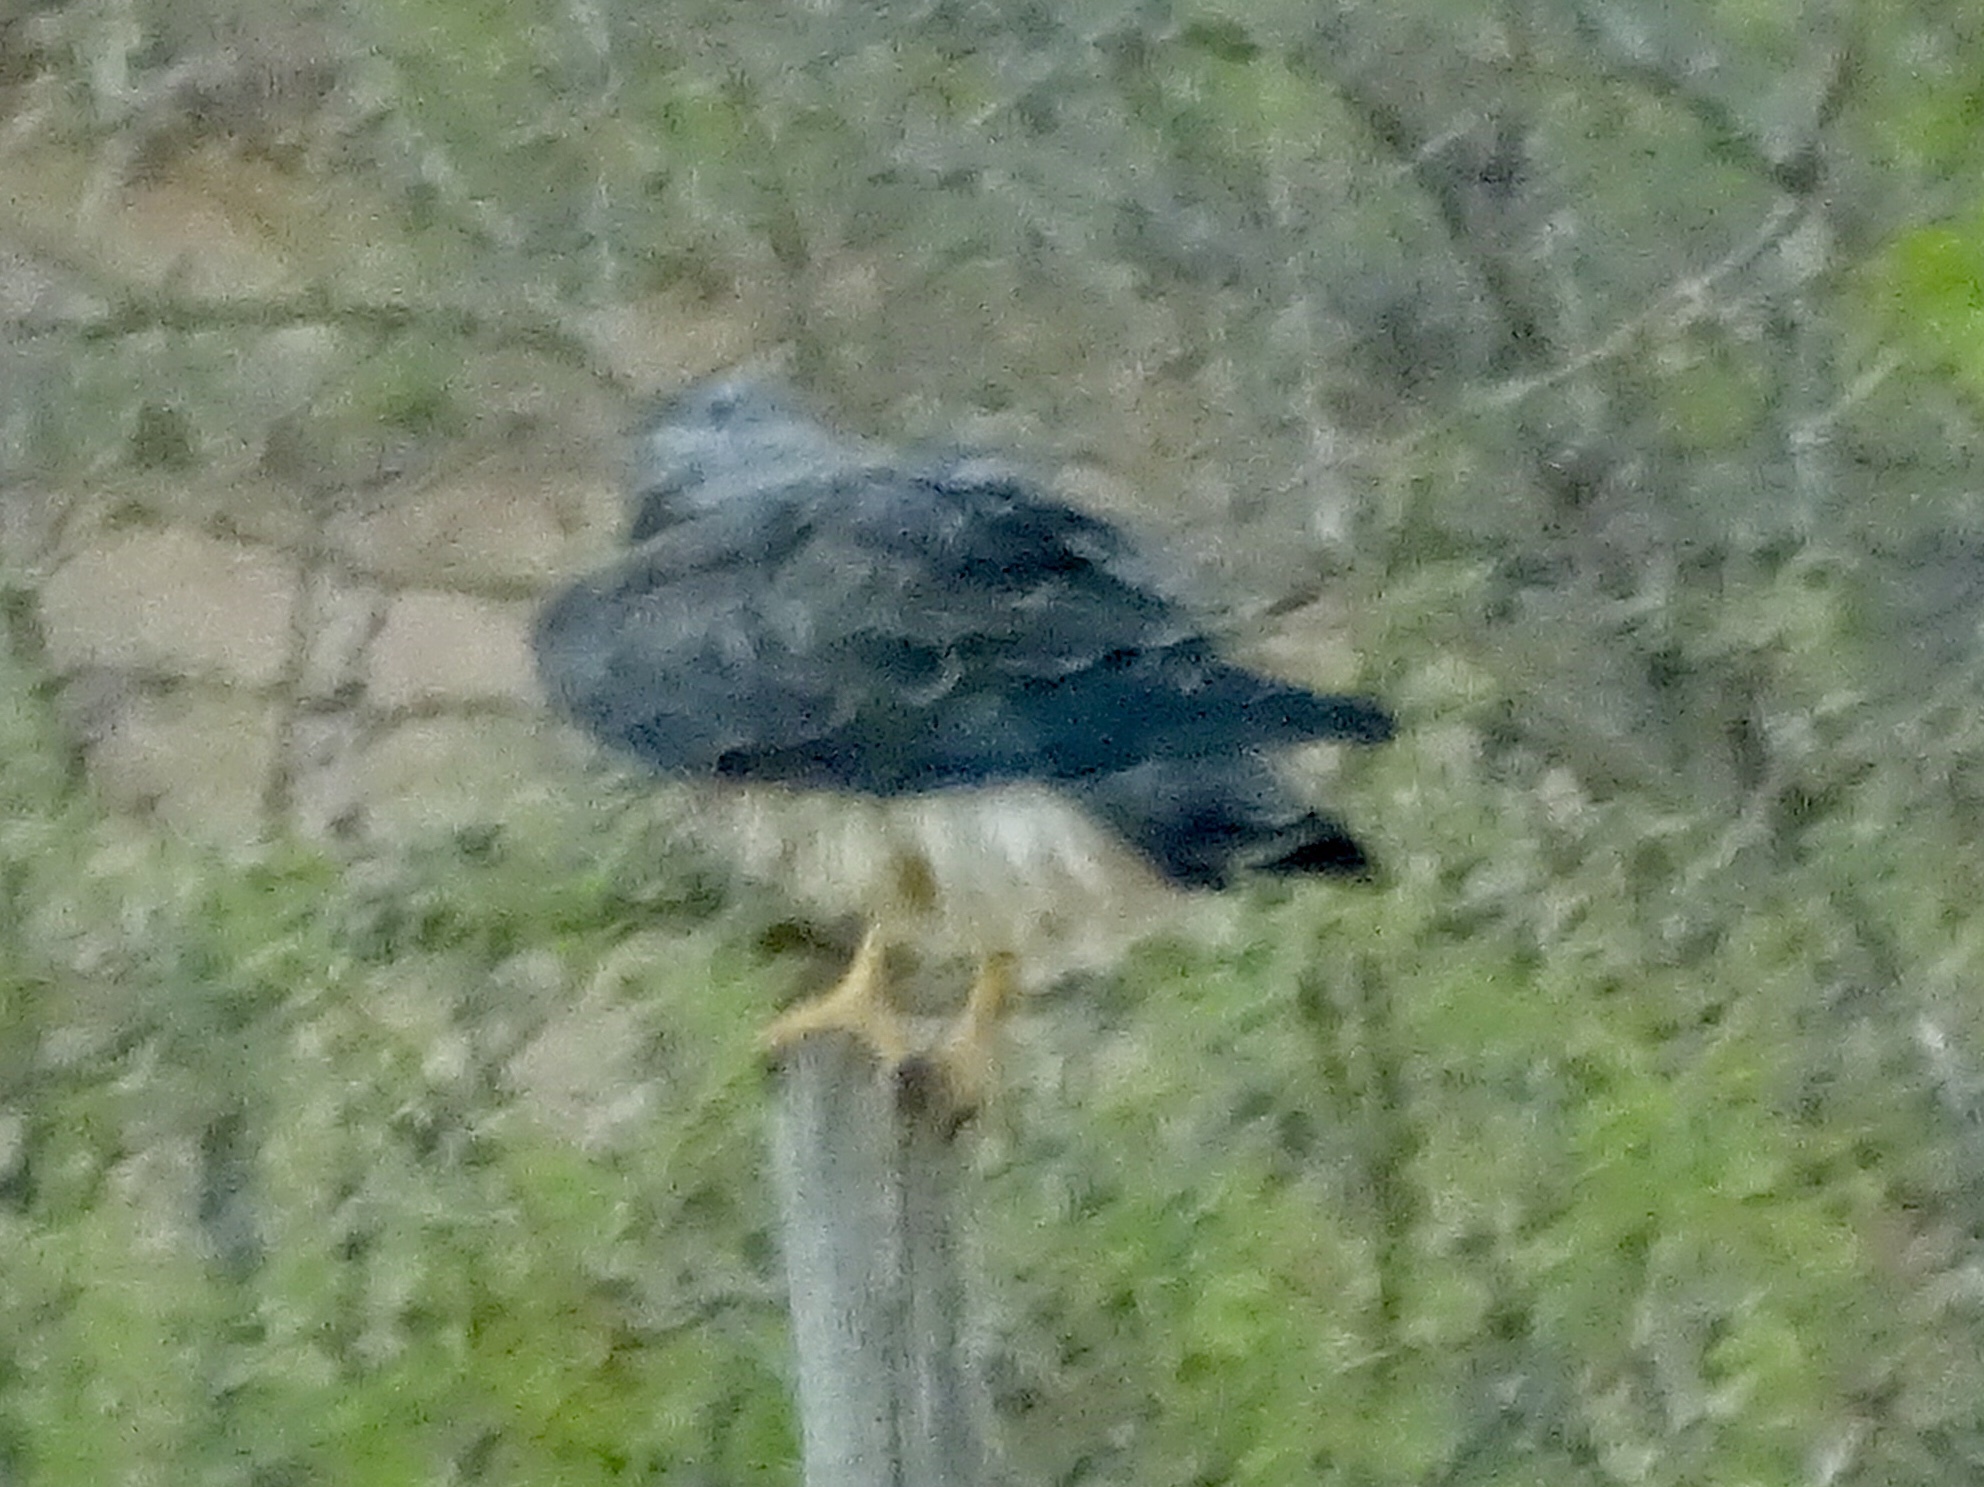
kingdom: Animalia
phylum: Chordata
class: Aves
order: Accipitriformes
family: Accipitridae
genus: Buteo
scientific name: Buteo swainsoni
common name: Swainson's hawk
